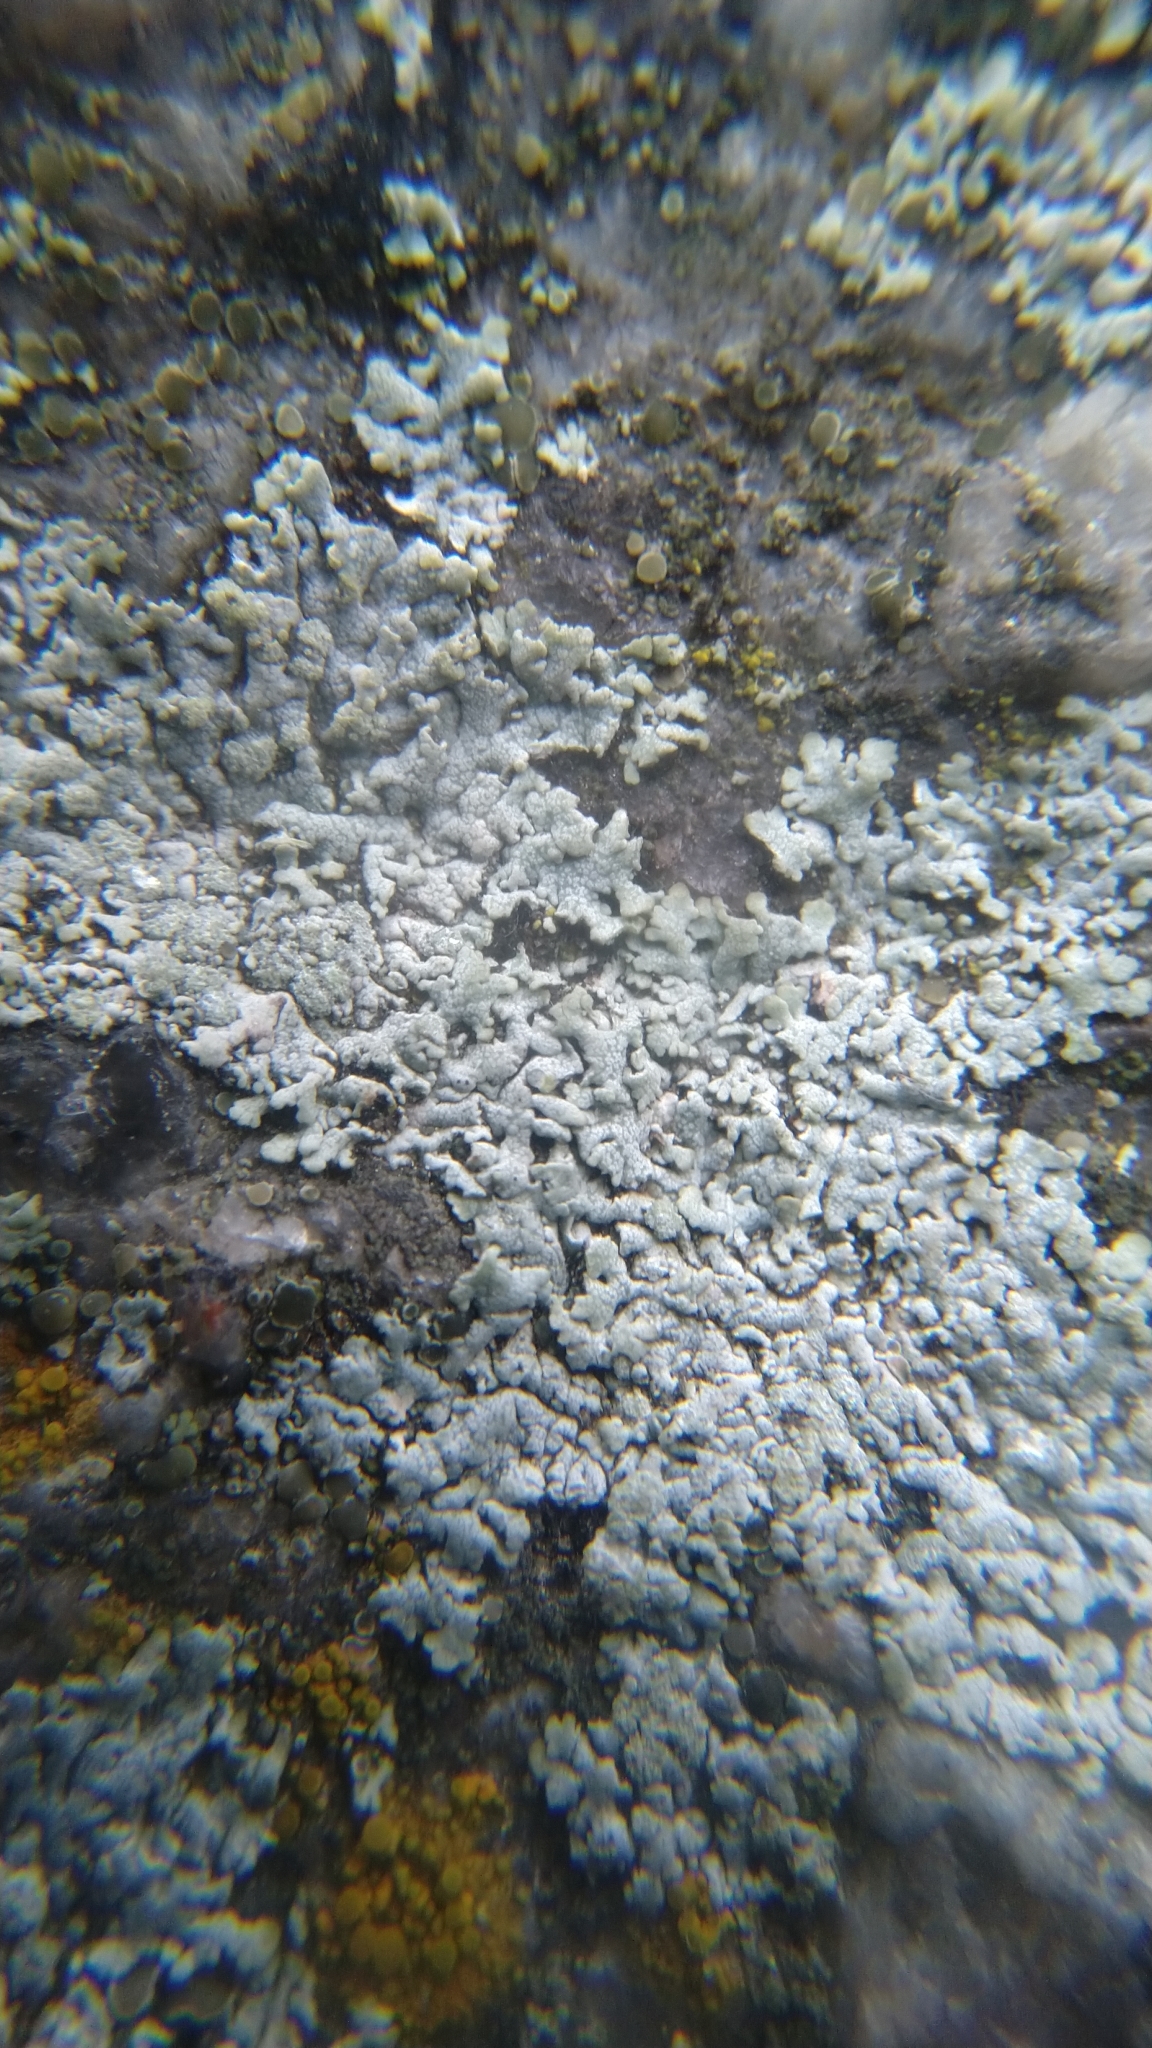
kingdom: Fungi
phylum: Ascomycota
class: Lecanoromycetes
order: Caliciales
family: Physciaceae
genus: Physcia
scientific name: Physcia caesia
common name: Blue-gray rosette lichen
